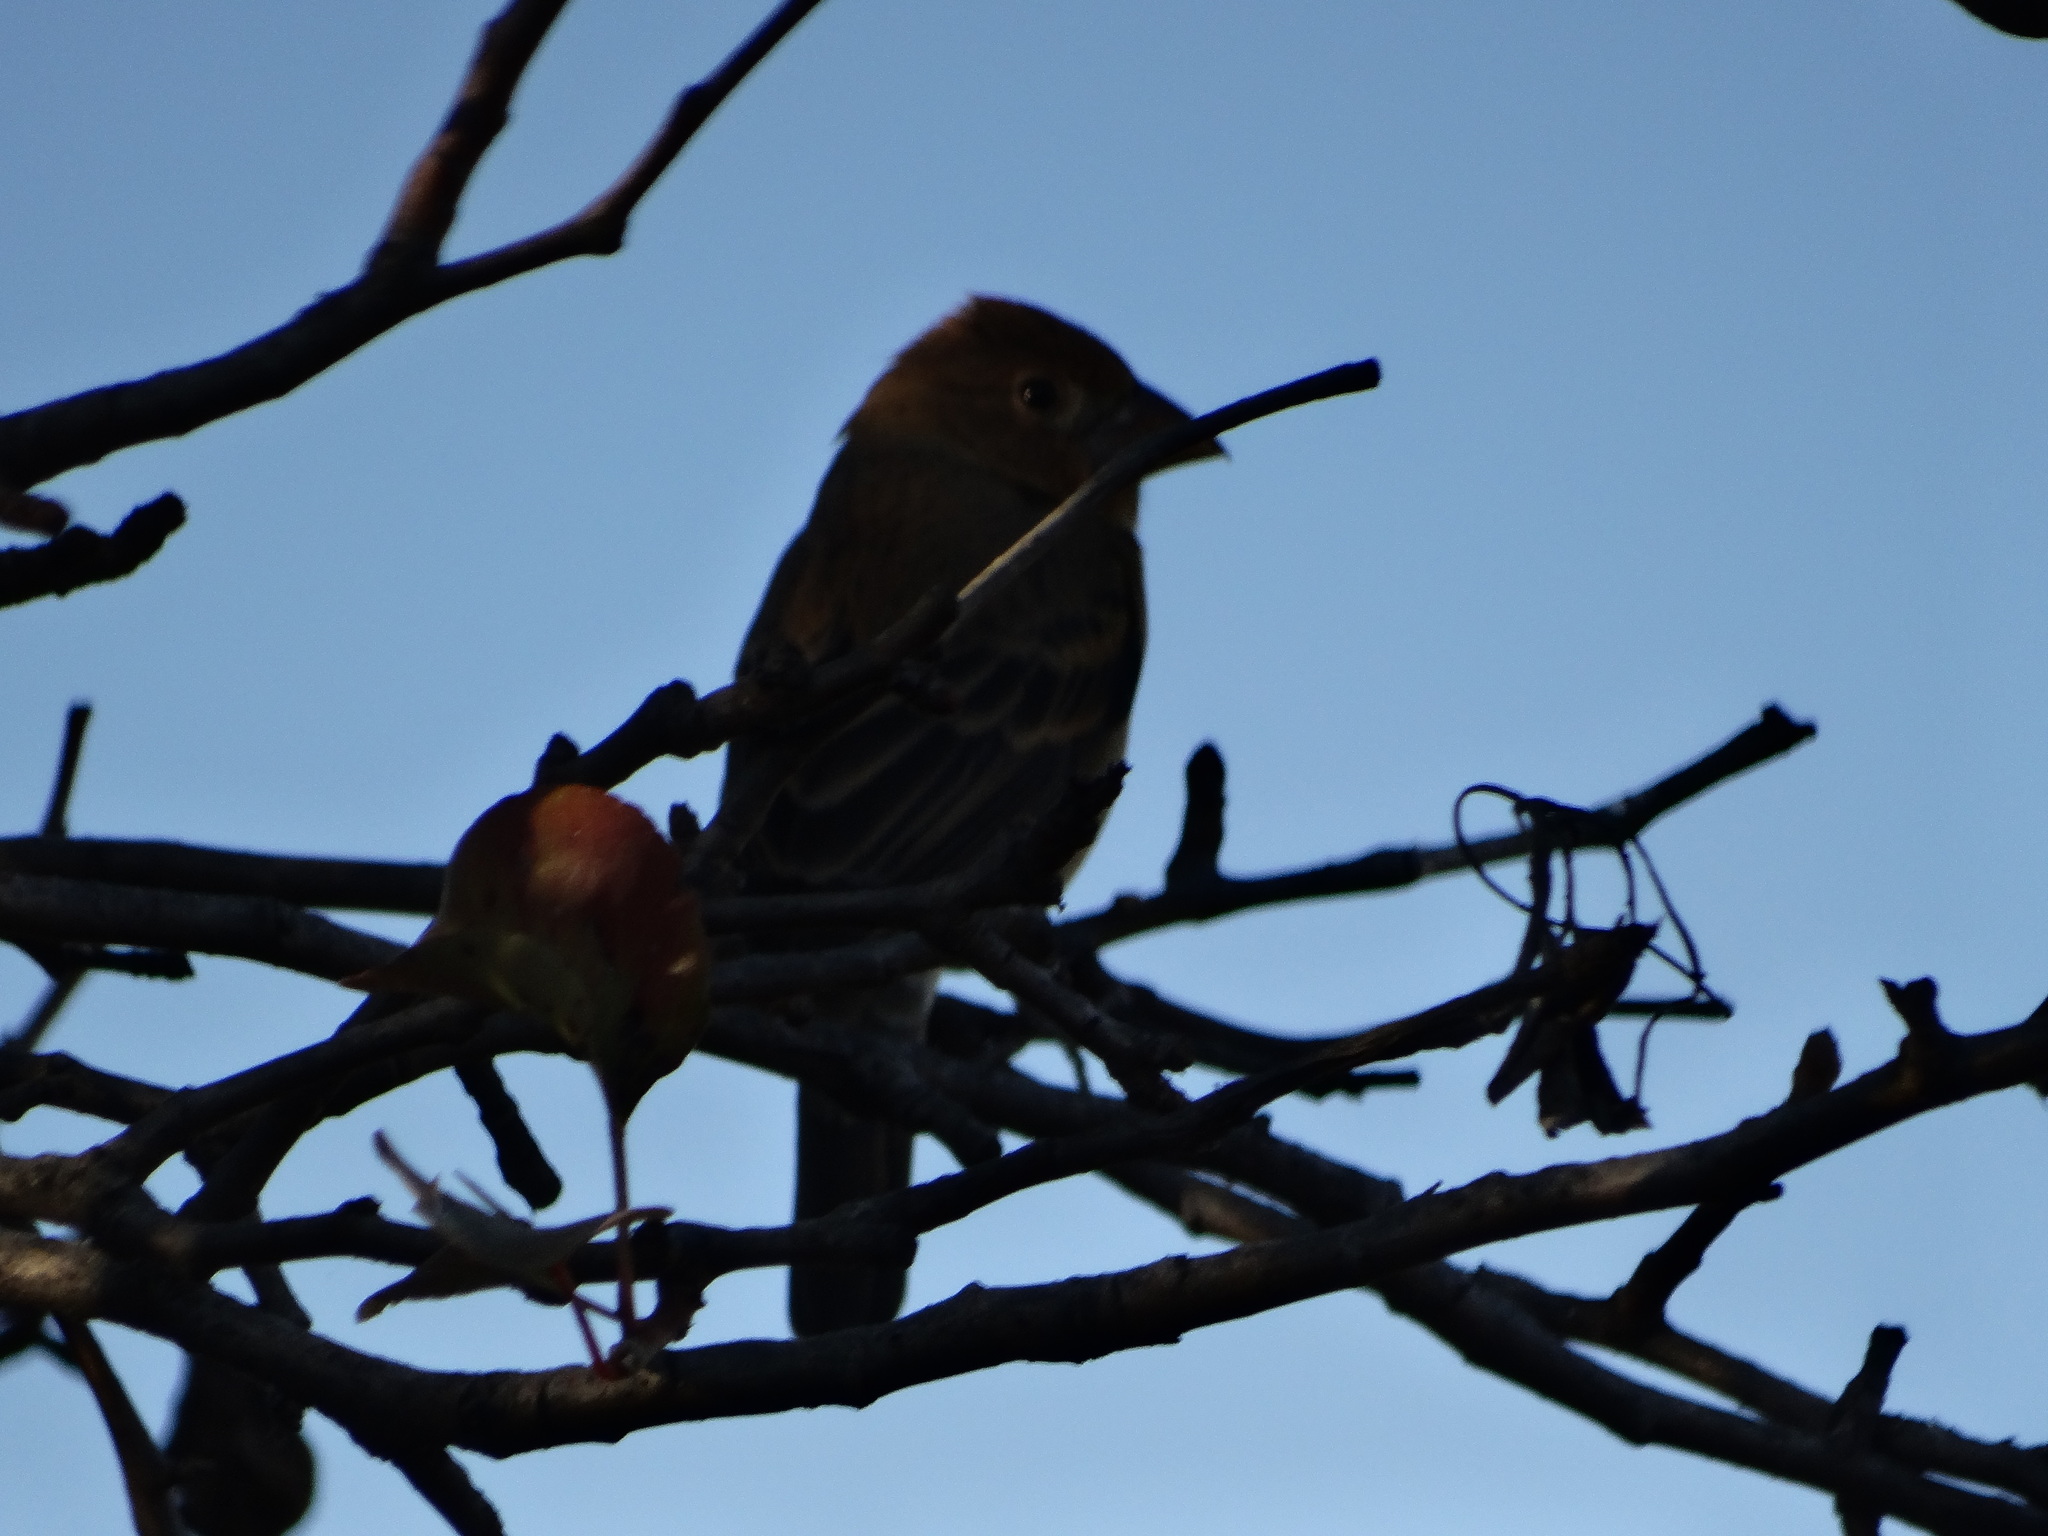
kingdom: Animalia
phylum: Chordata
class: Aves
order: Passeriformes
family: Cardinalidae
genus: Passerina
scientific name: Passerina caerulea
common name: Blue grosbeak
